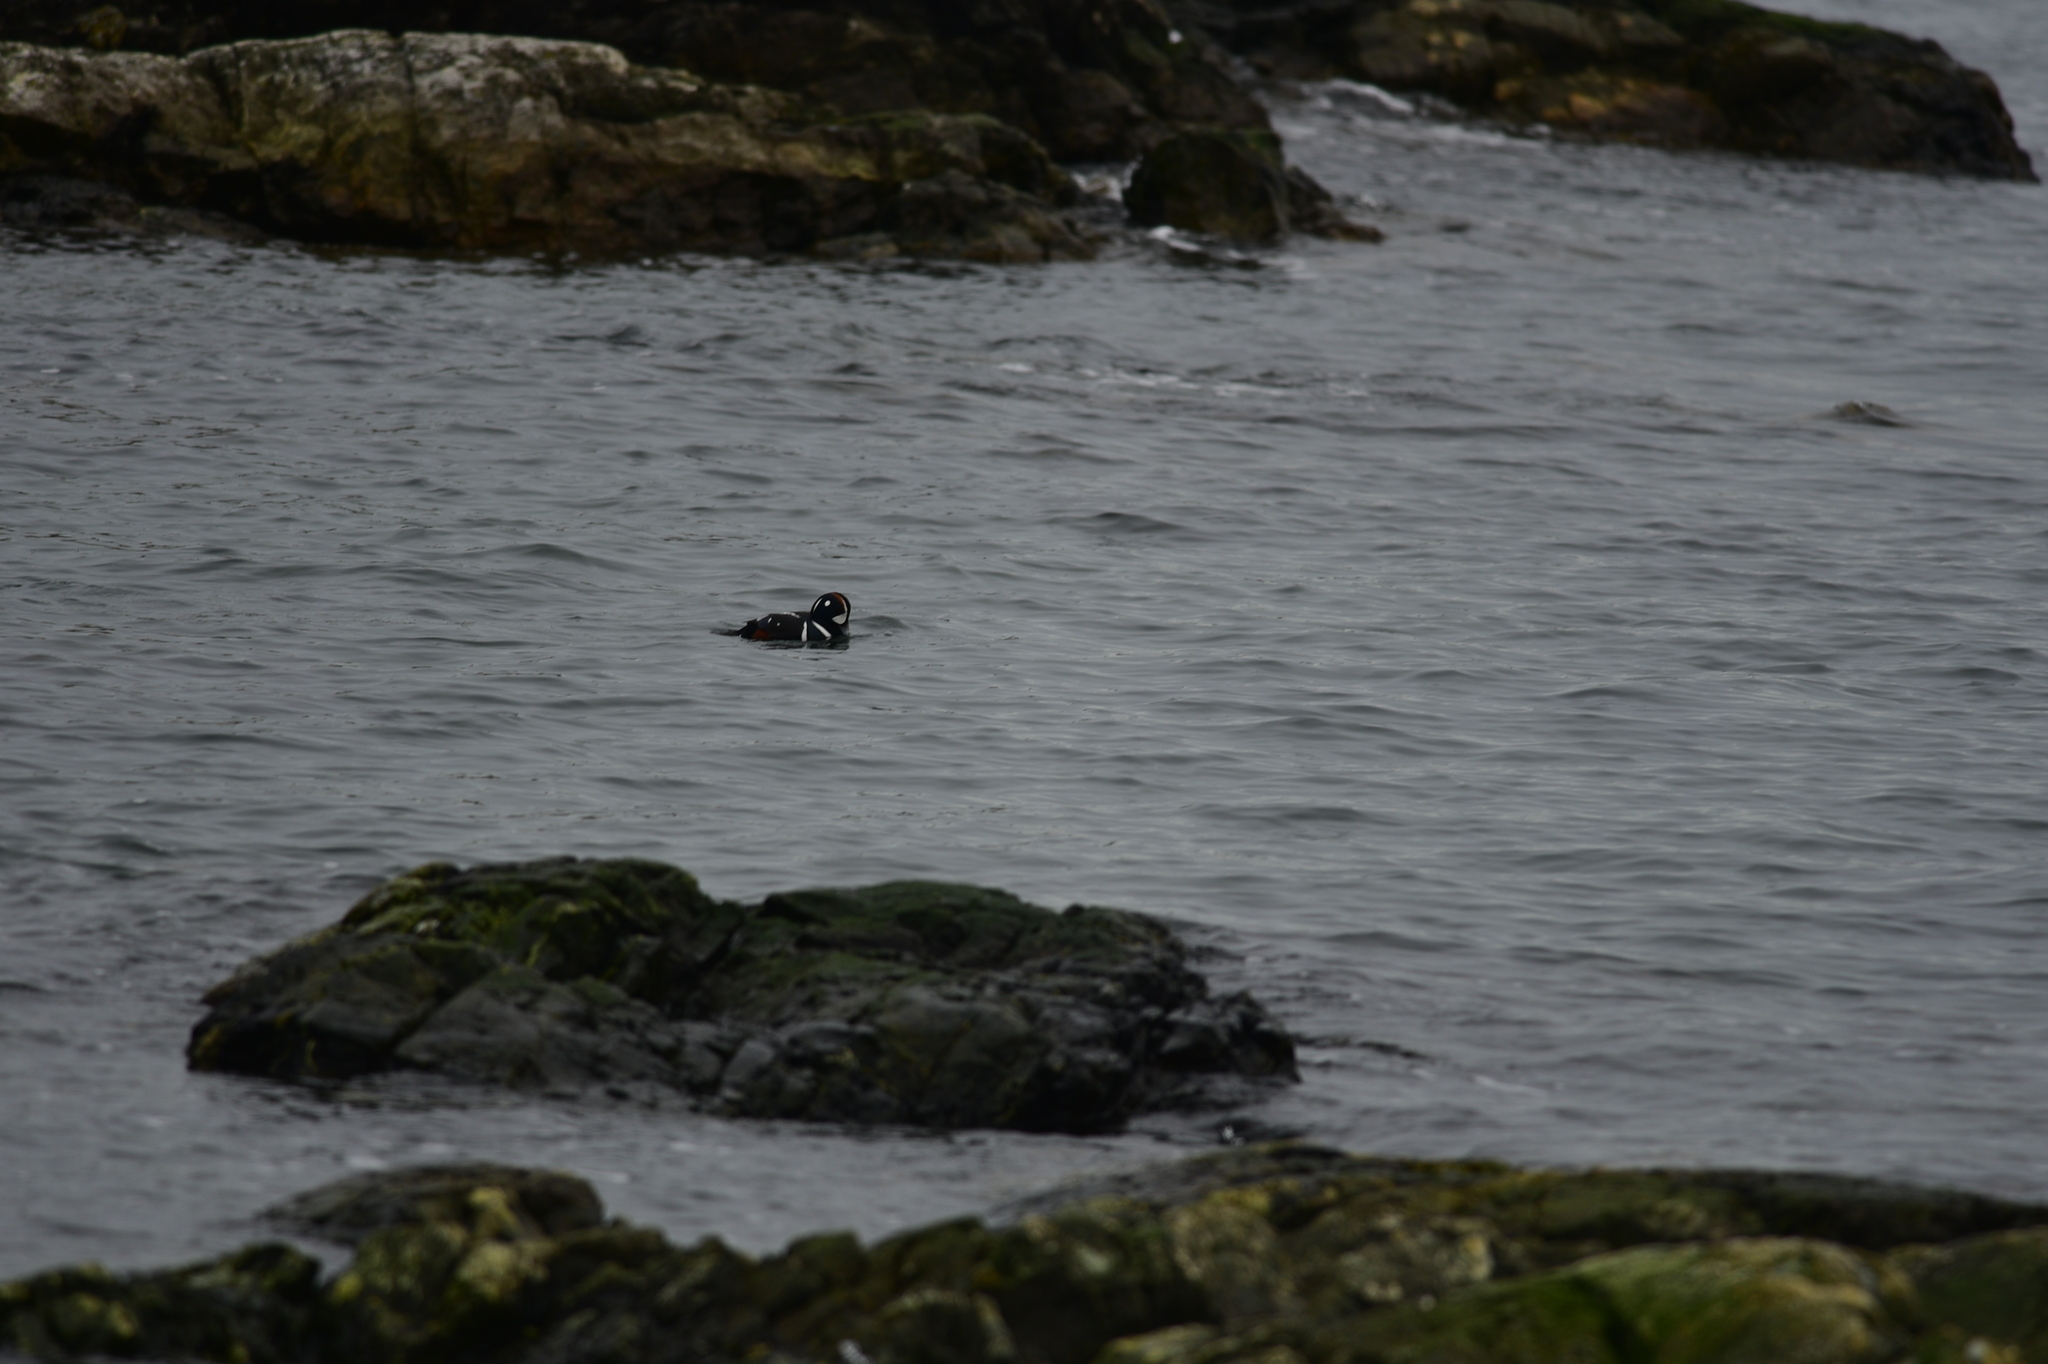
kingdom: Animalia
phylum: Chordata
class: Aves
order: Anseriformes
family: Anatidae
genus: Histrionicus
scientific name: Histrionicus histrionicus
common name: Harlequin duck
